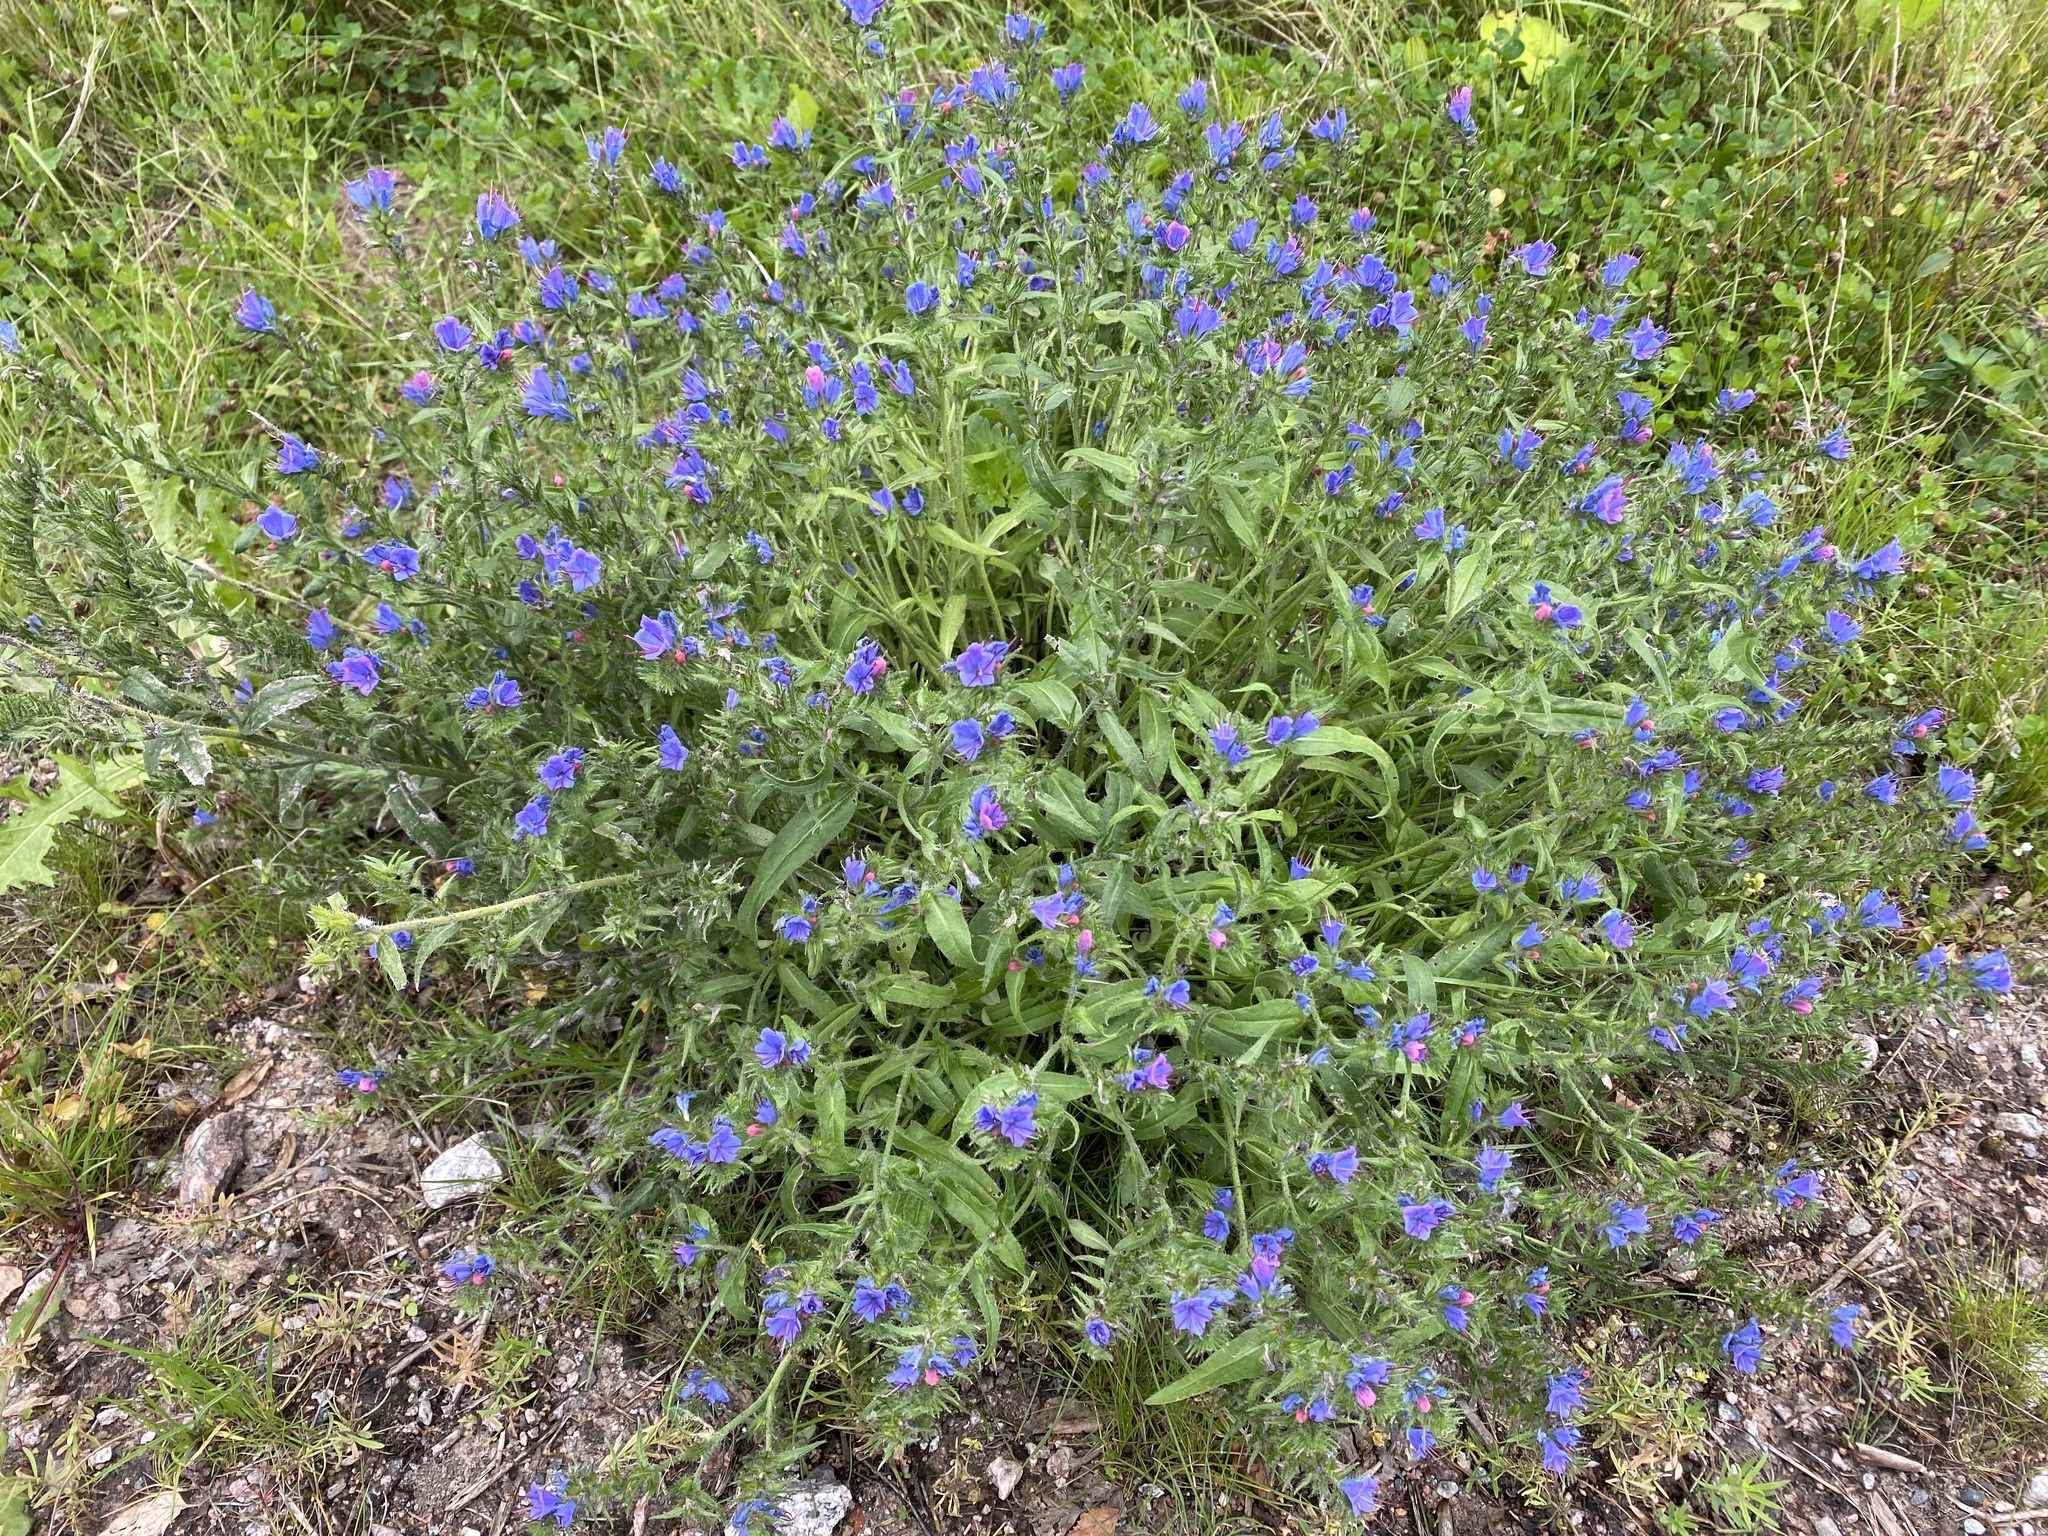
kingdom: Plantae
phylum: Tracheophyta
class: Magnoliopsida
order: Boraginales
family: Boraginaceae
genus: Echium
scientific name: Echium vulgare
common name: Common viper's bugloss
